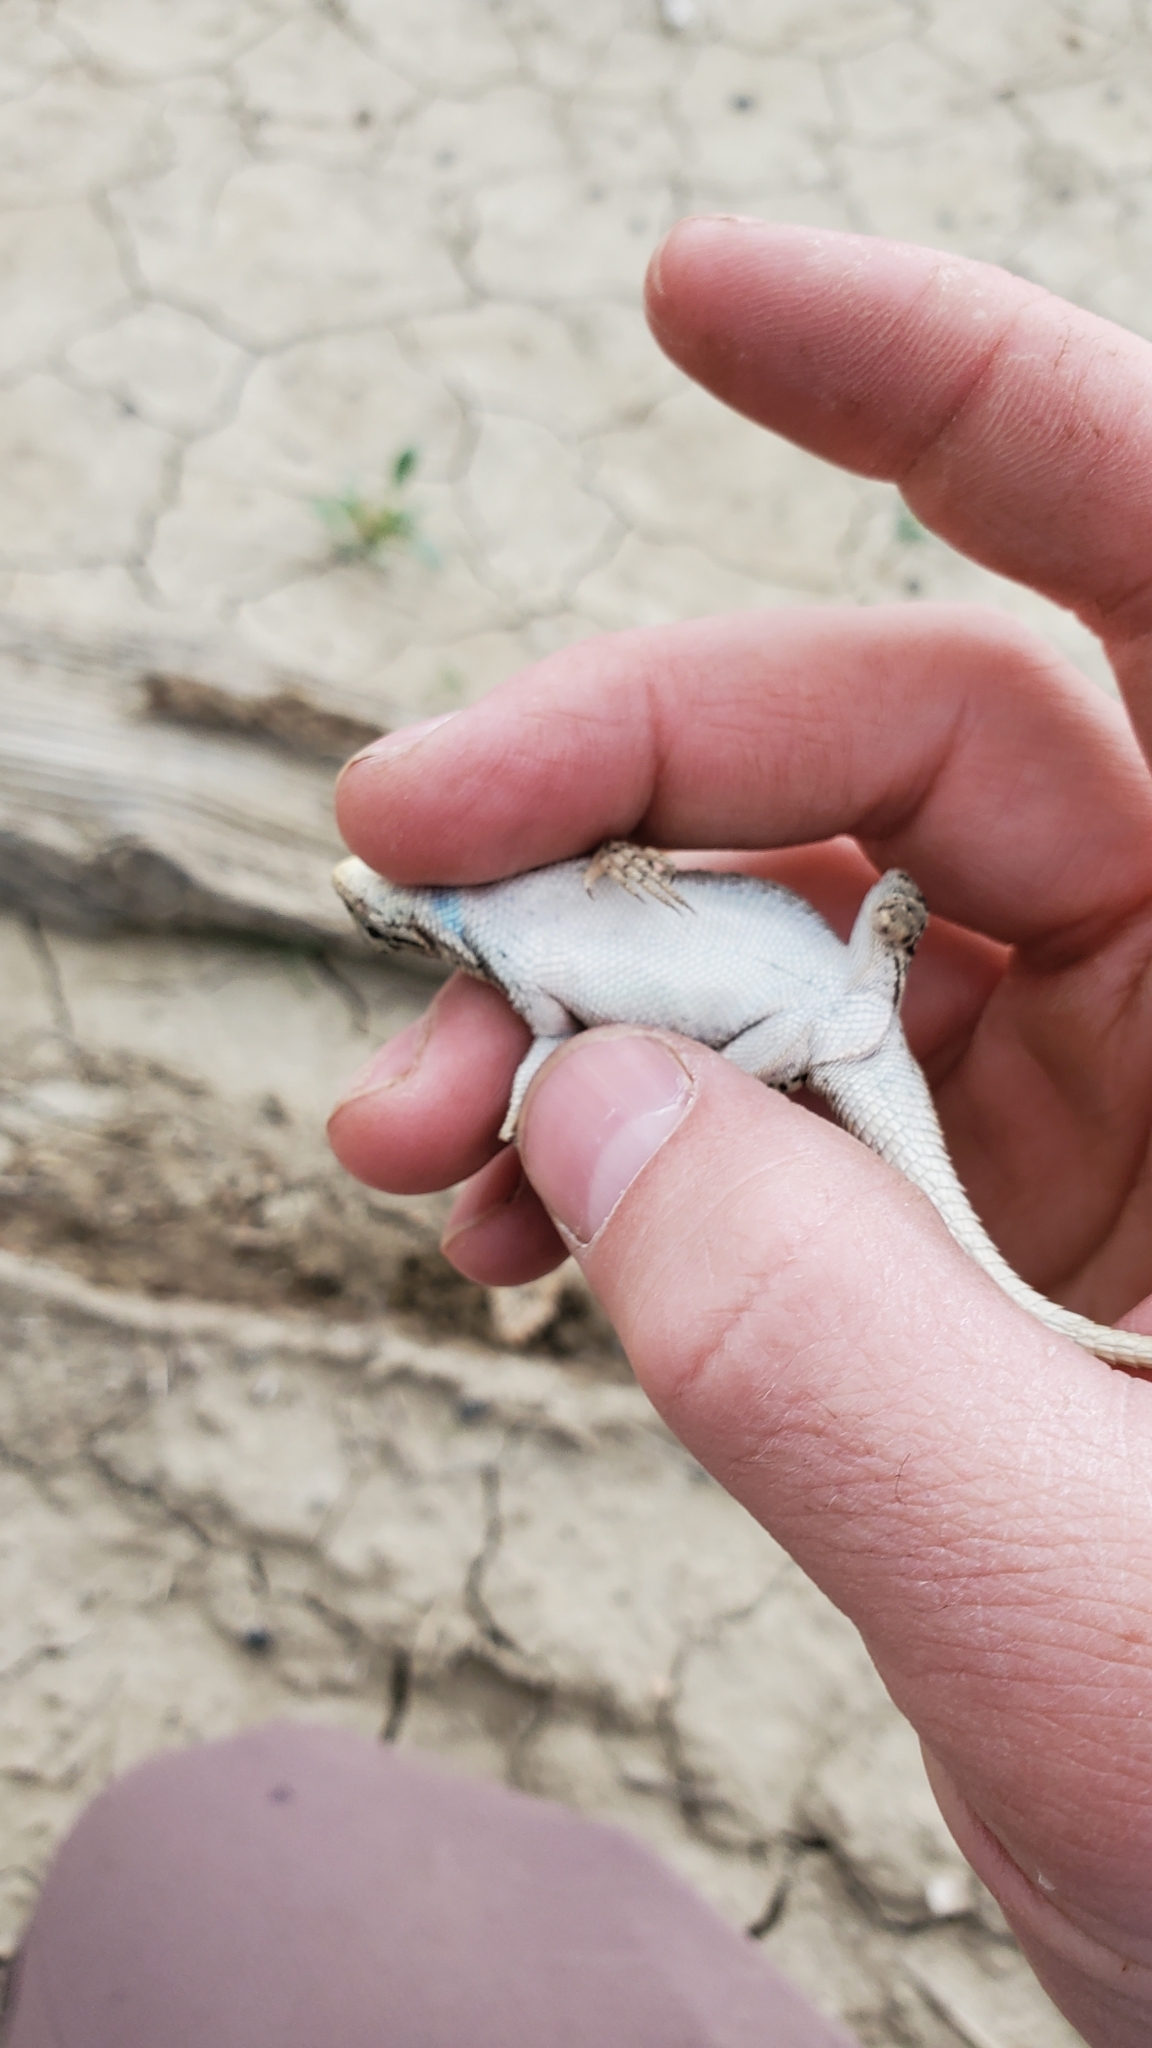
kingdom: Animalia
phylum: Chordata
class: Squamata
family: Phrynosomatidae
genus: Sceloporus
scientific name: Sceloporus consobrinus
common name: Southern prairie lizard
